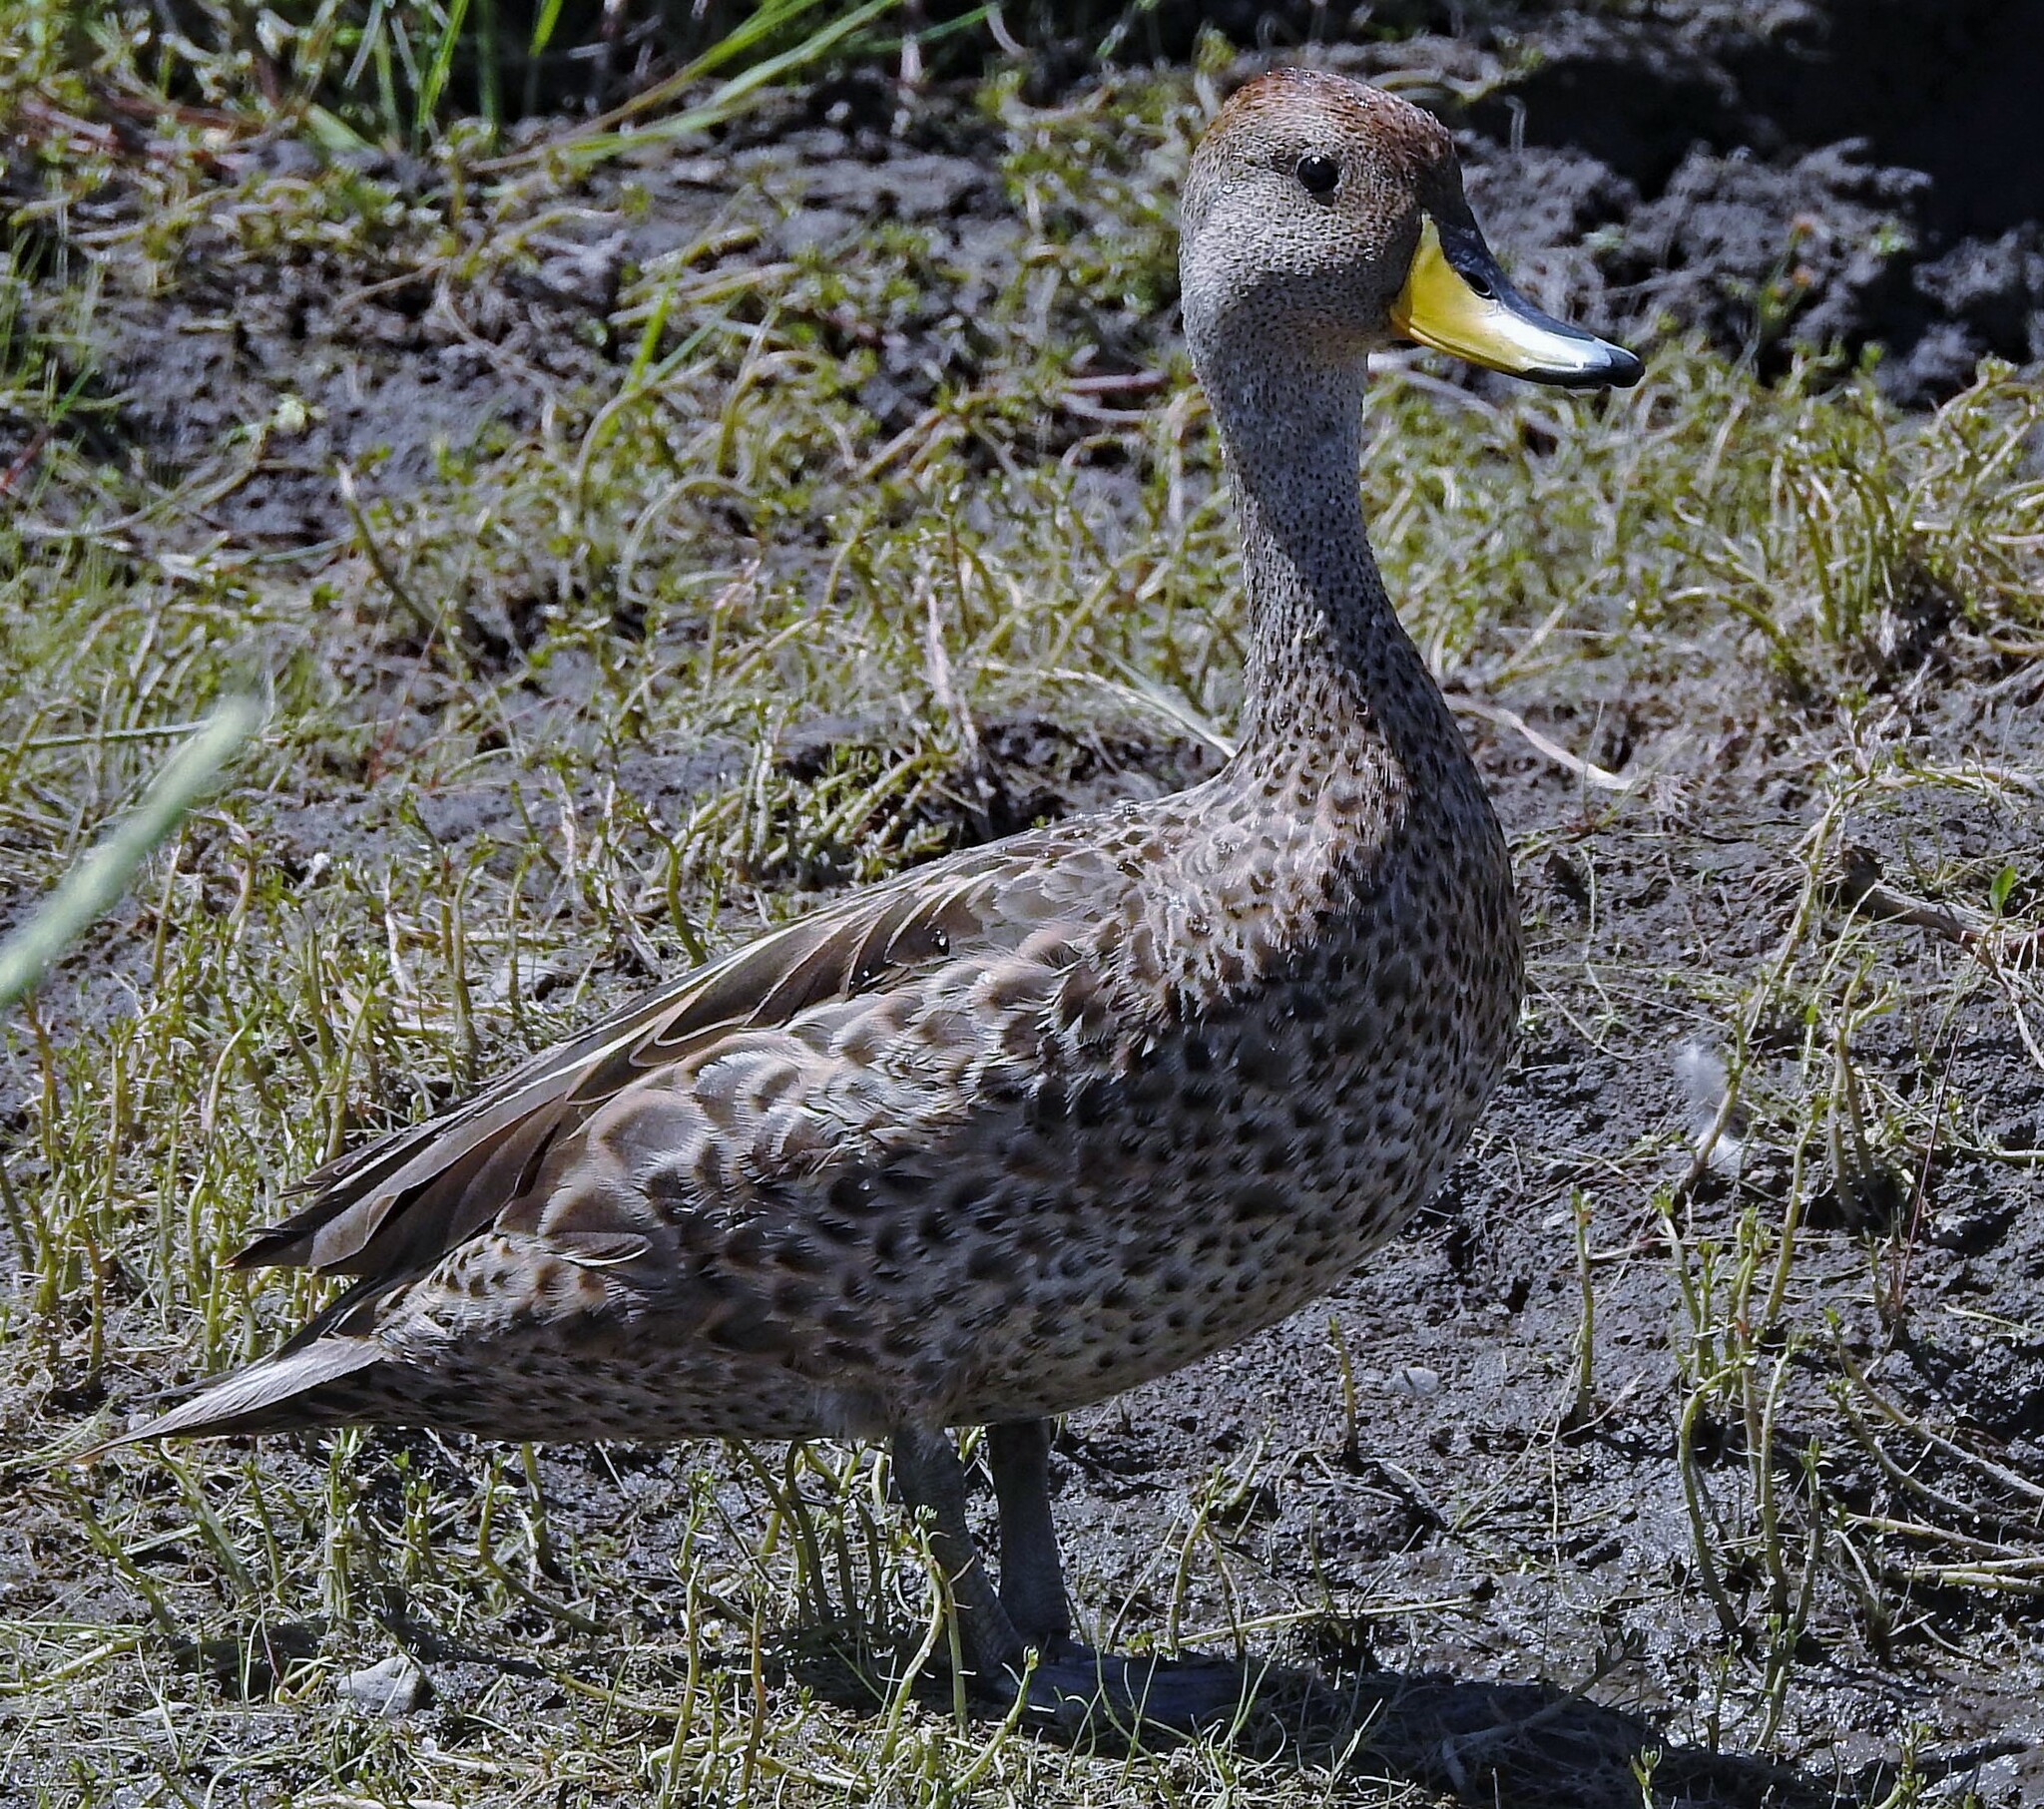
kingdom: Animalia
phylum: Chordata
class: Aves
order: Anseriformes
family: Anatidae
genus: Anas
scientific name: Anas georgica
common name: Yellow-billed pintail
